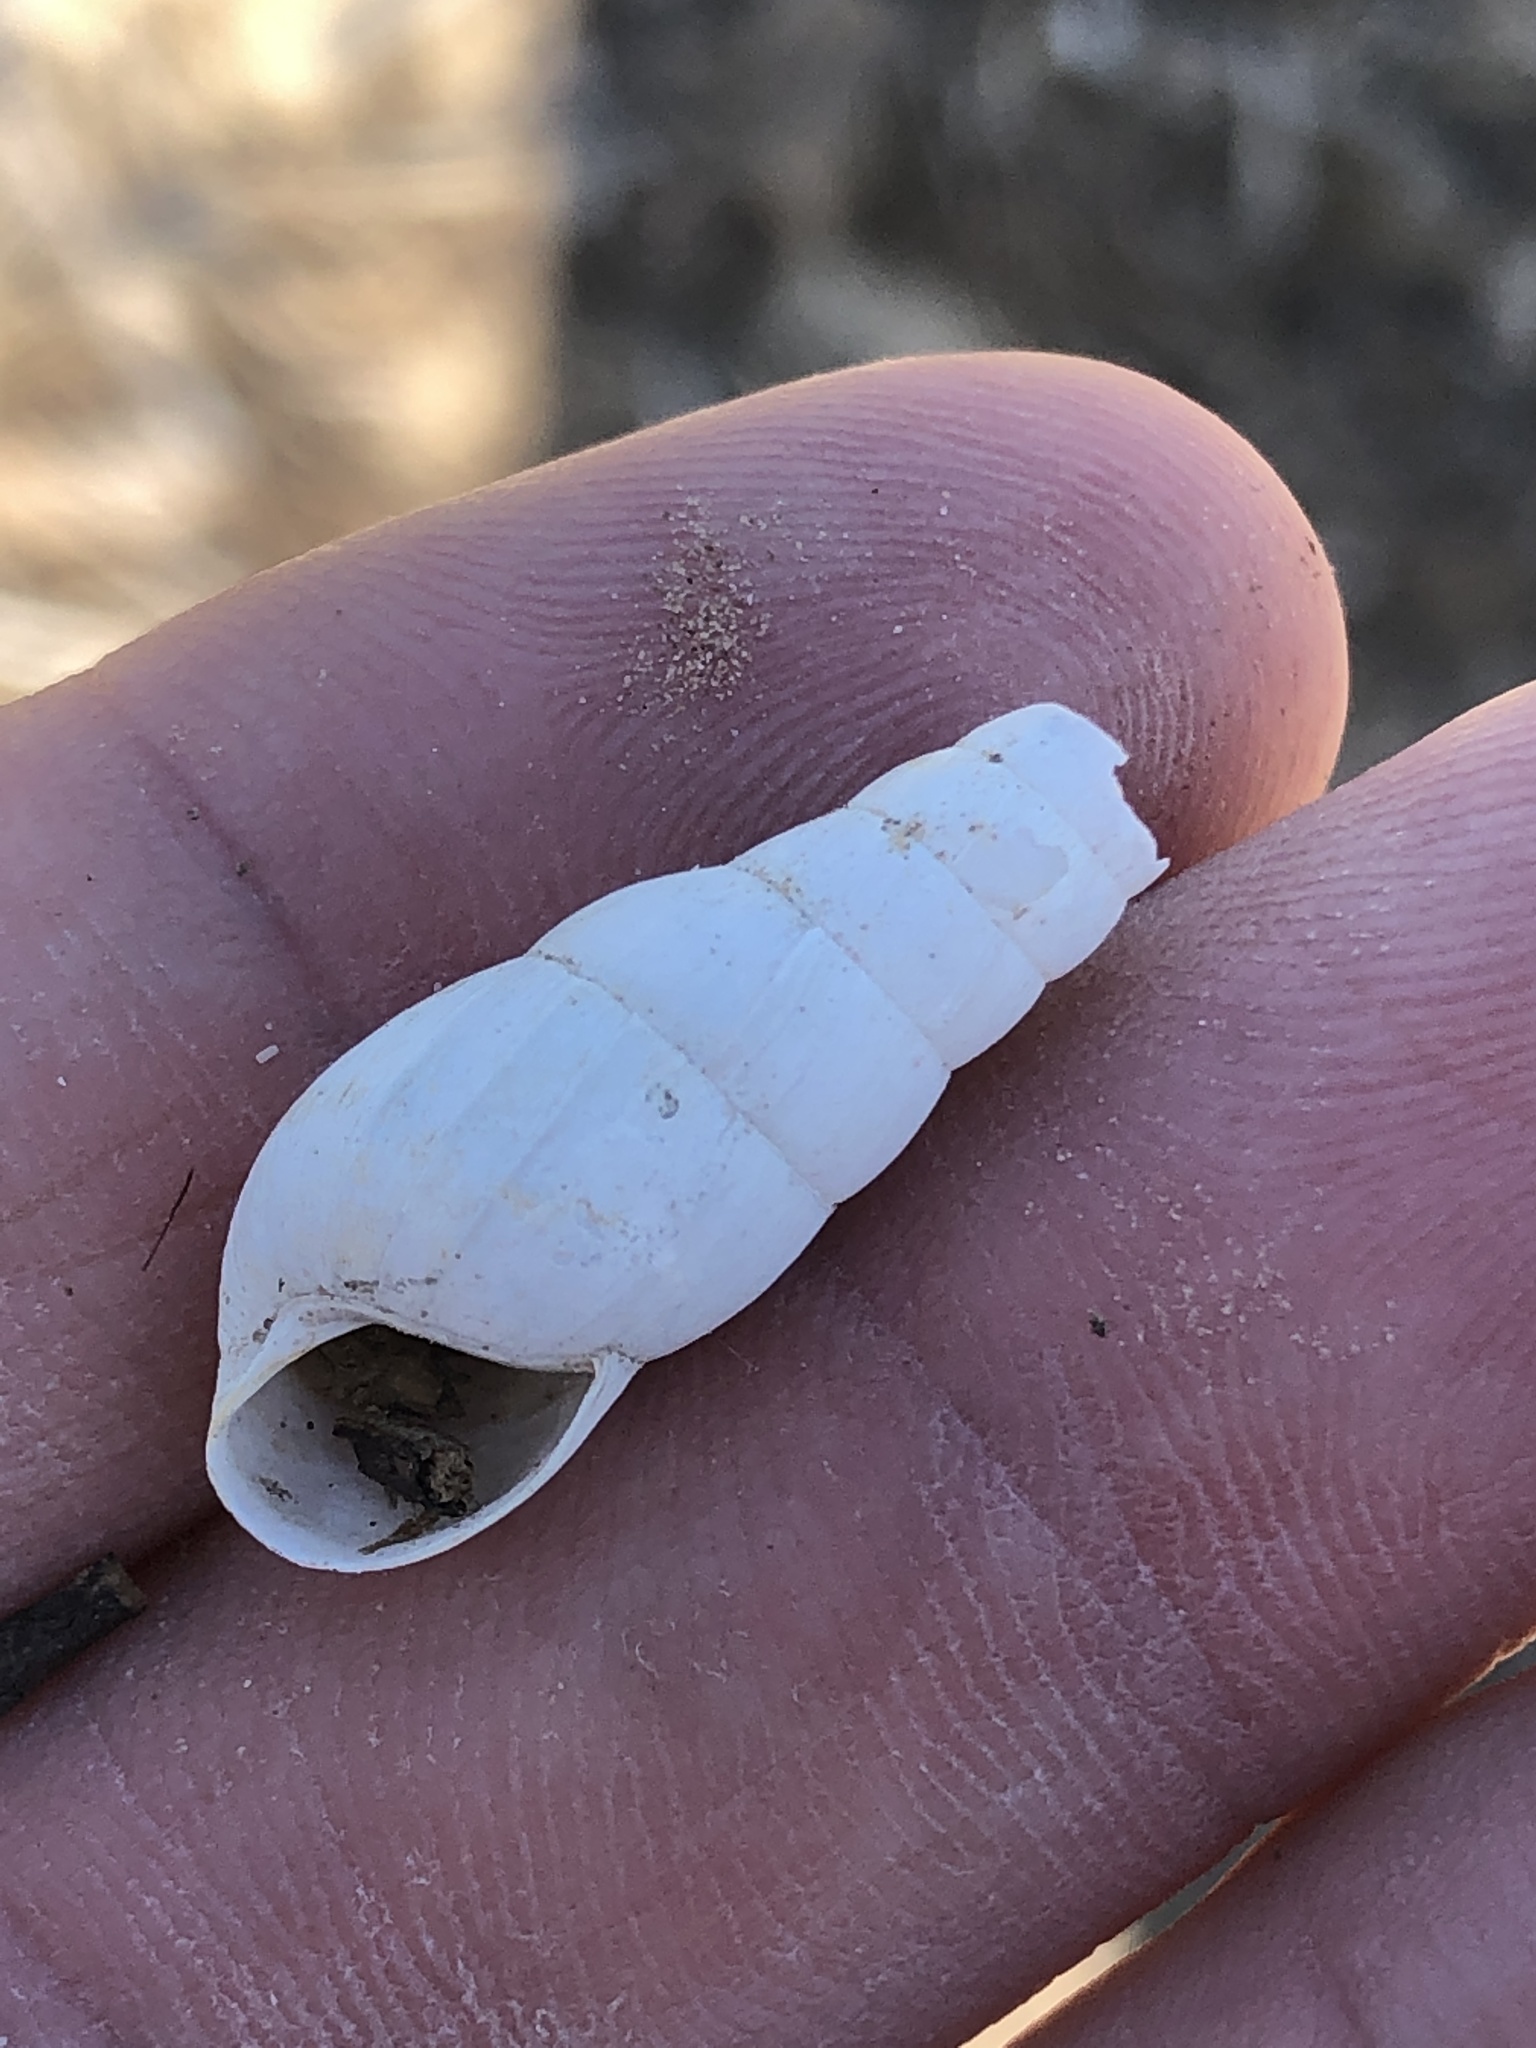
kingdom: Animalia
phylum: Mollusca
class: Gastropoda
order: Stylommatophora
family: Achatinidae
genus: Rumina
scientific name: Rumina decollata
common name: Decollate snail
